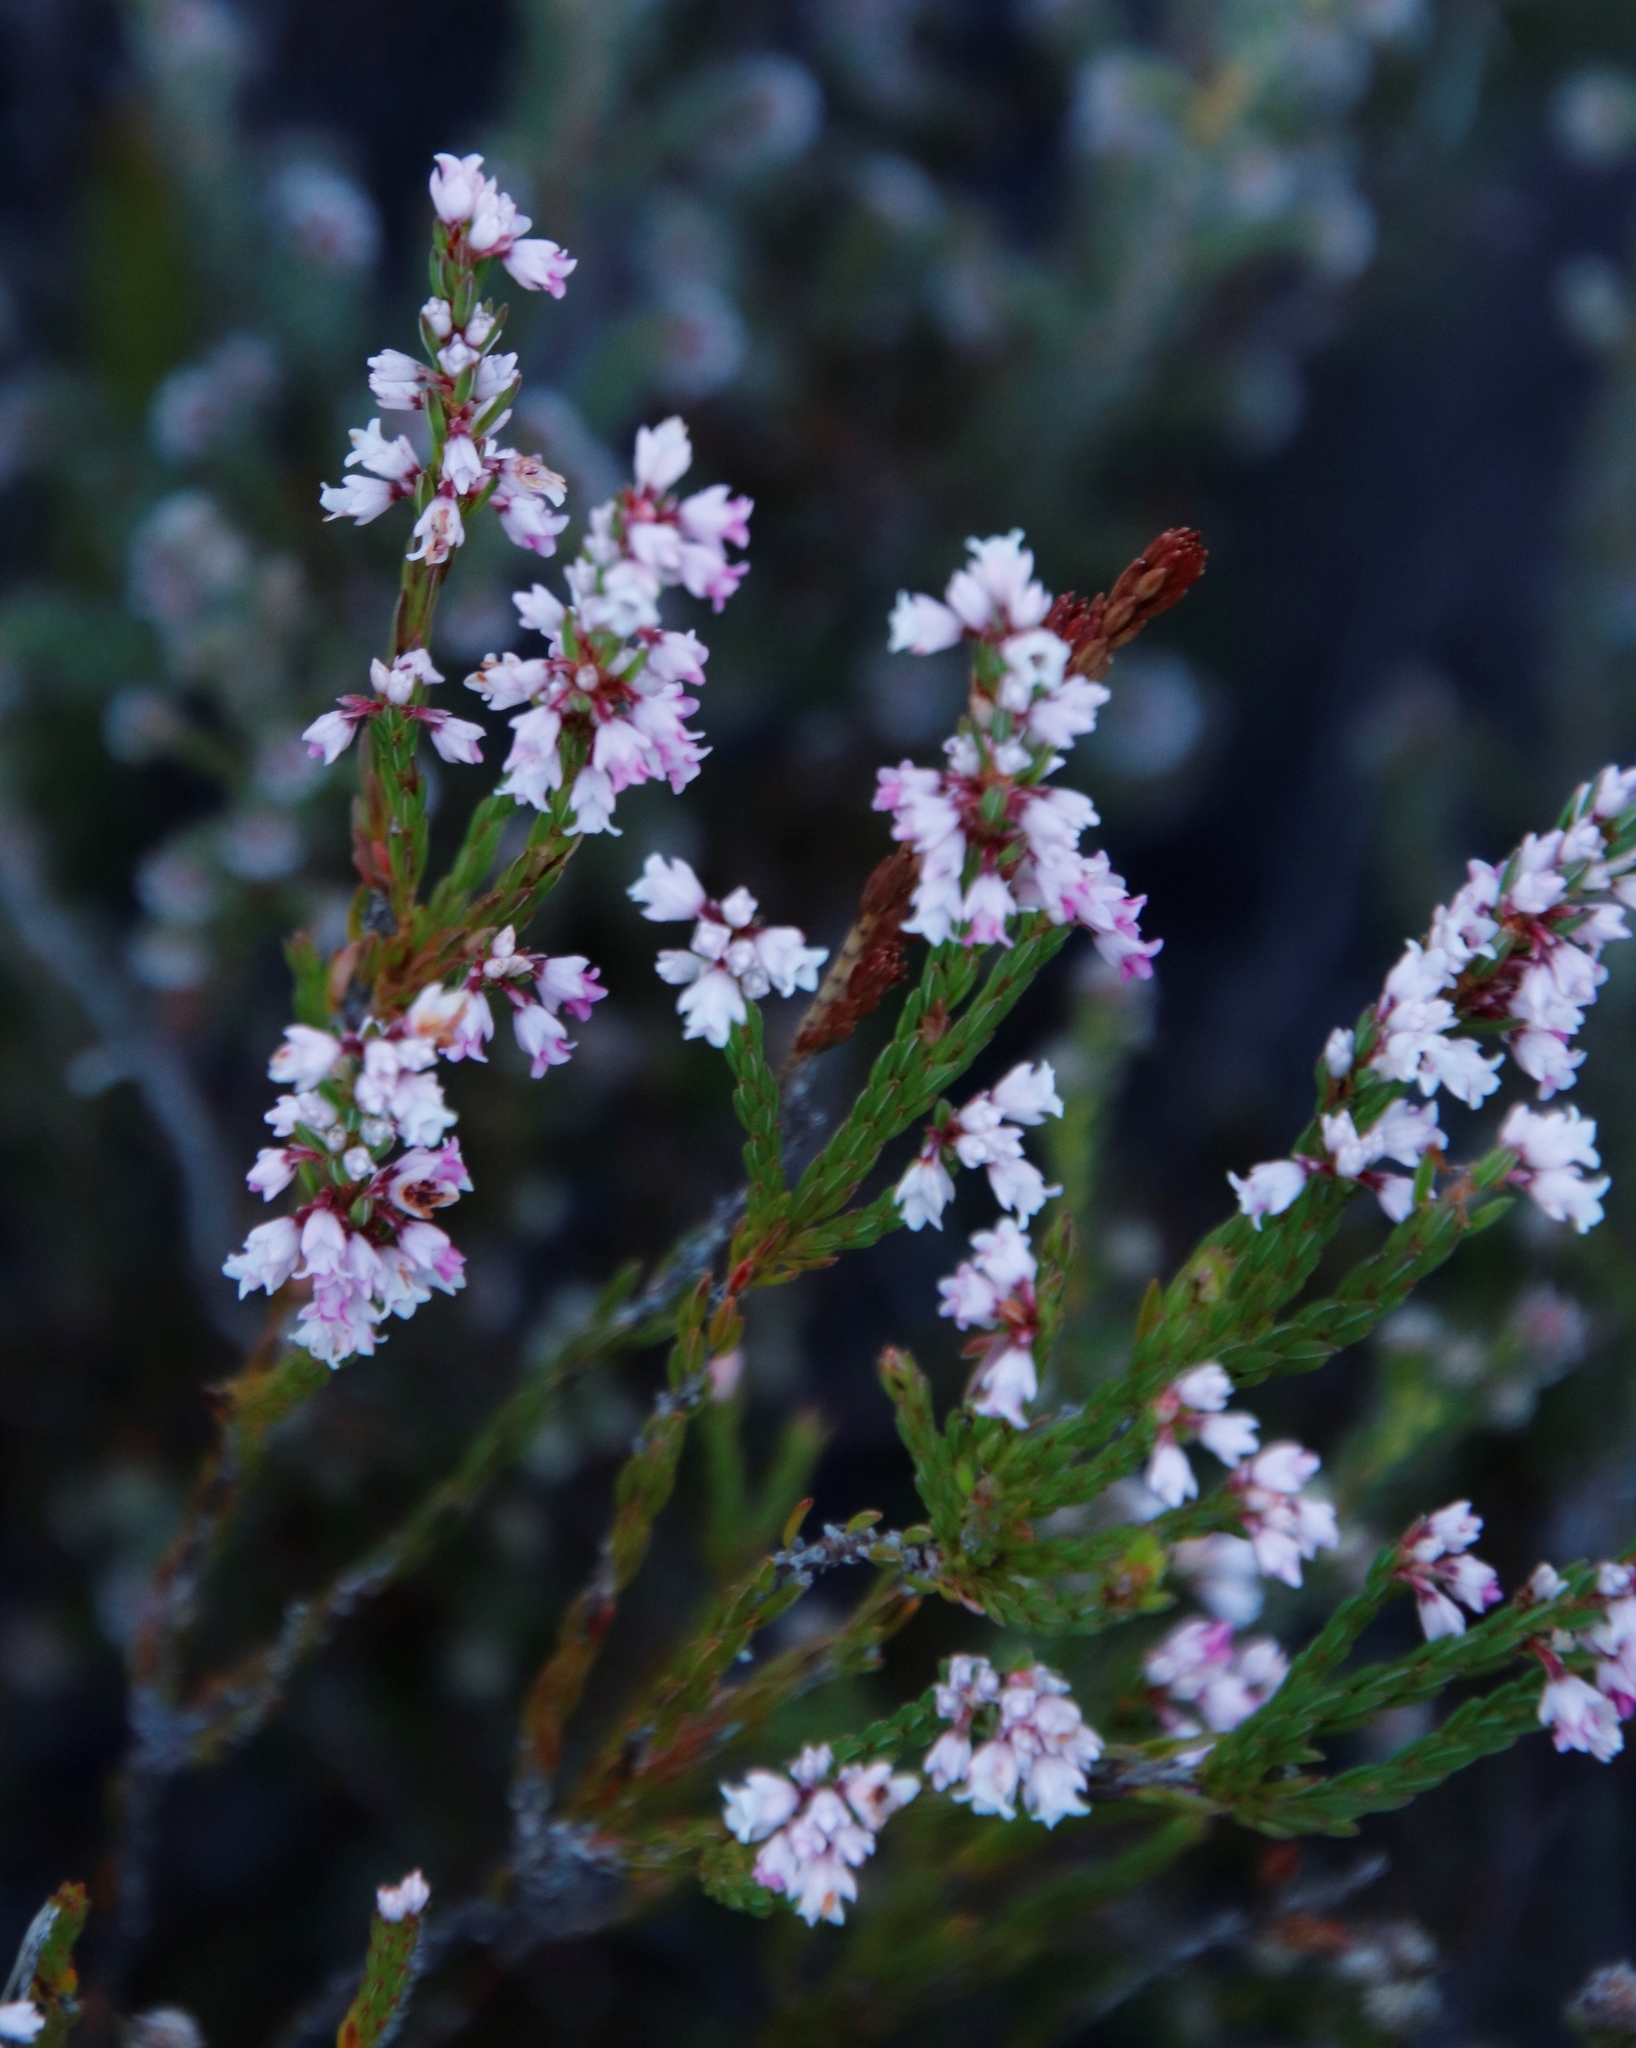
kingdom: Plantae
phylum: Tracheophyta
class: Magnoliopsida
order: Ericales
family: Ericaceae
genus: Erica
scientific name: Erica articularis
